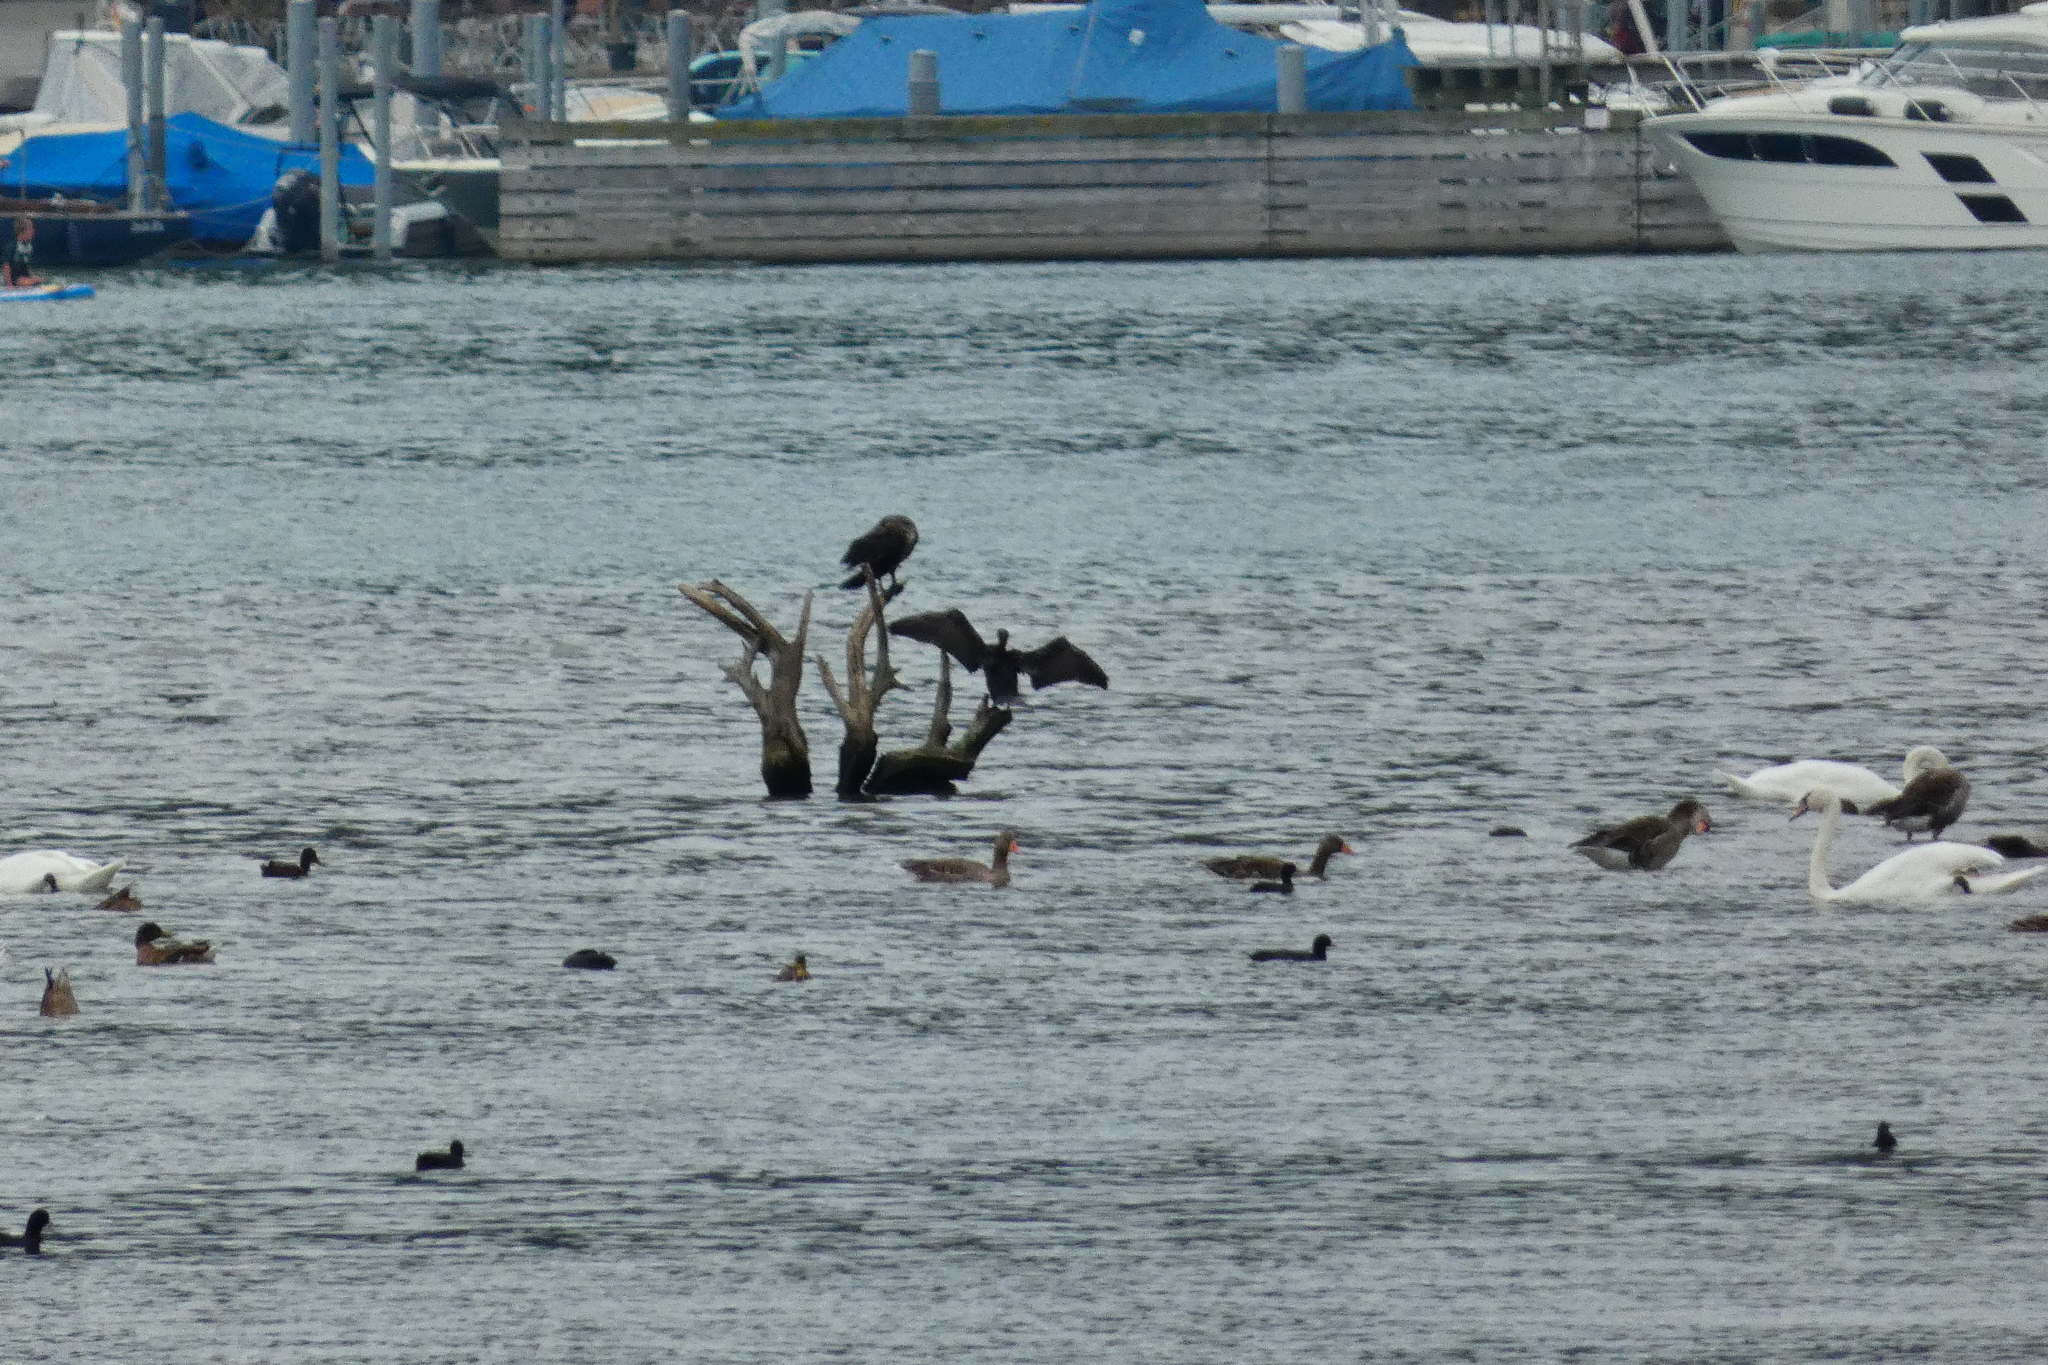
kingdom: Animalia
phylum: Chordata
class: Aves
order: Suliformes
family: Phalacrocoracidae
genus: Phalacrocorax
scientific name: Phalacrocorax carbo
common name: Great cormorant
